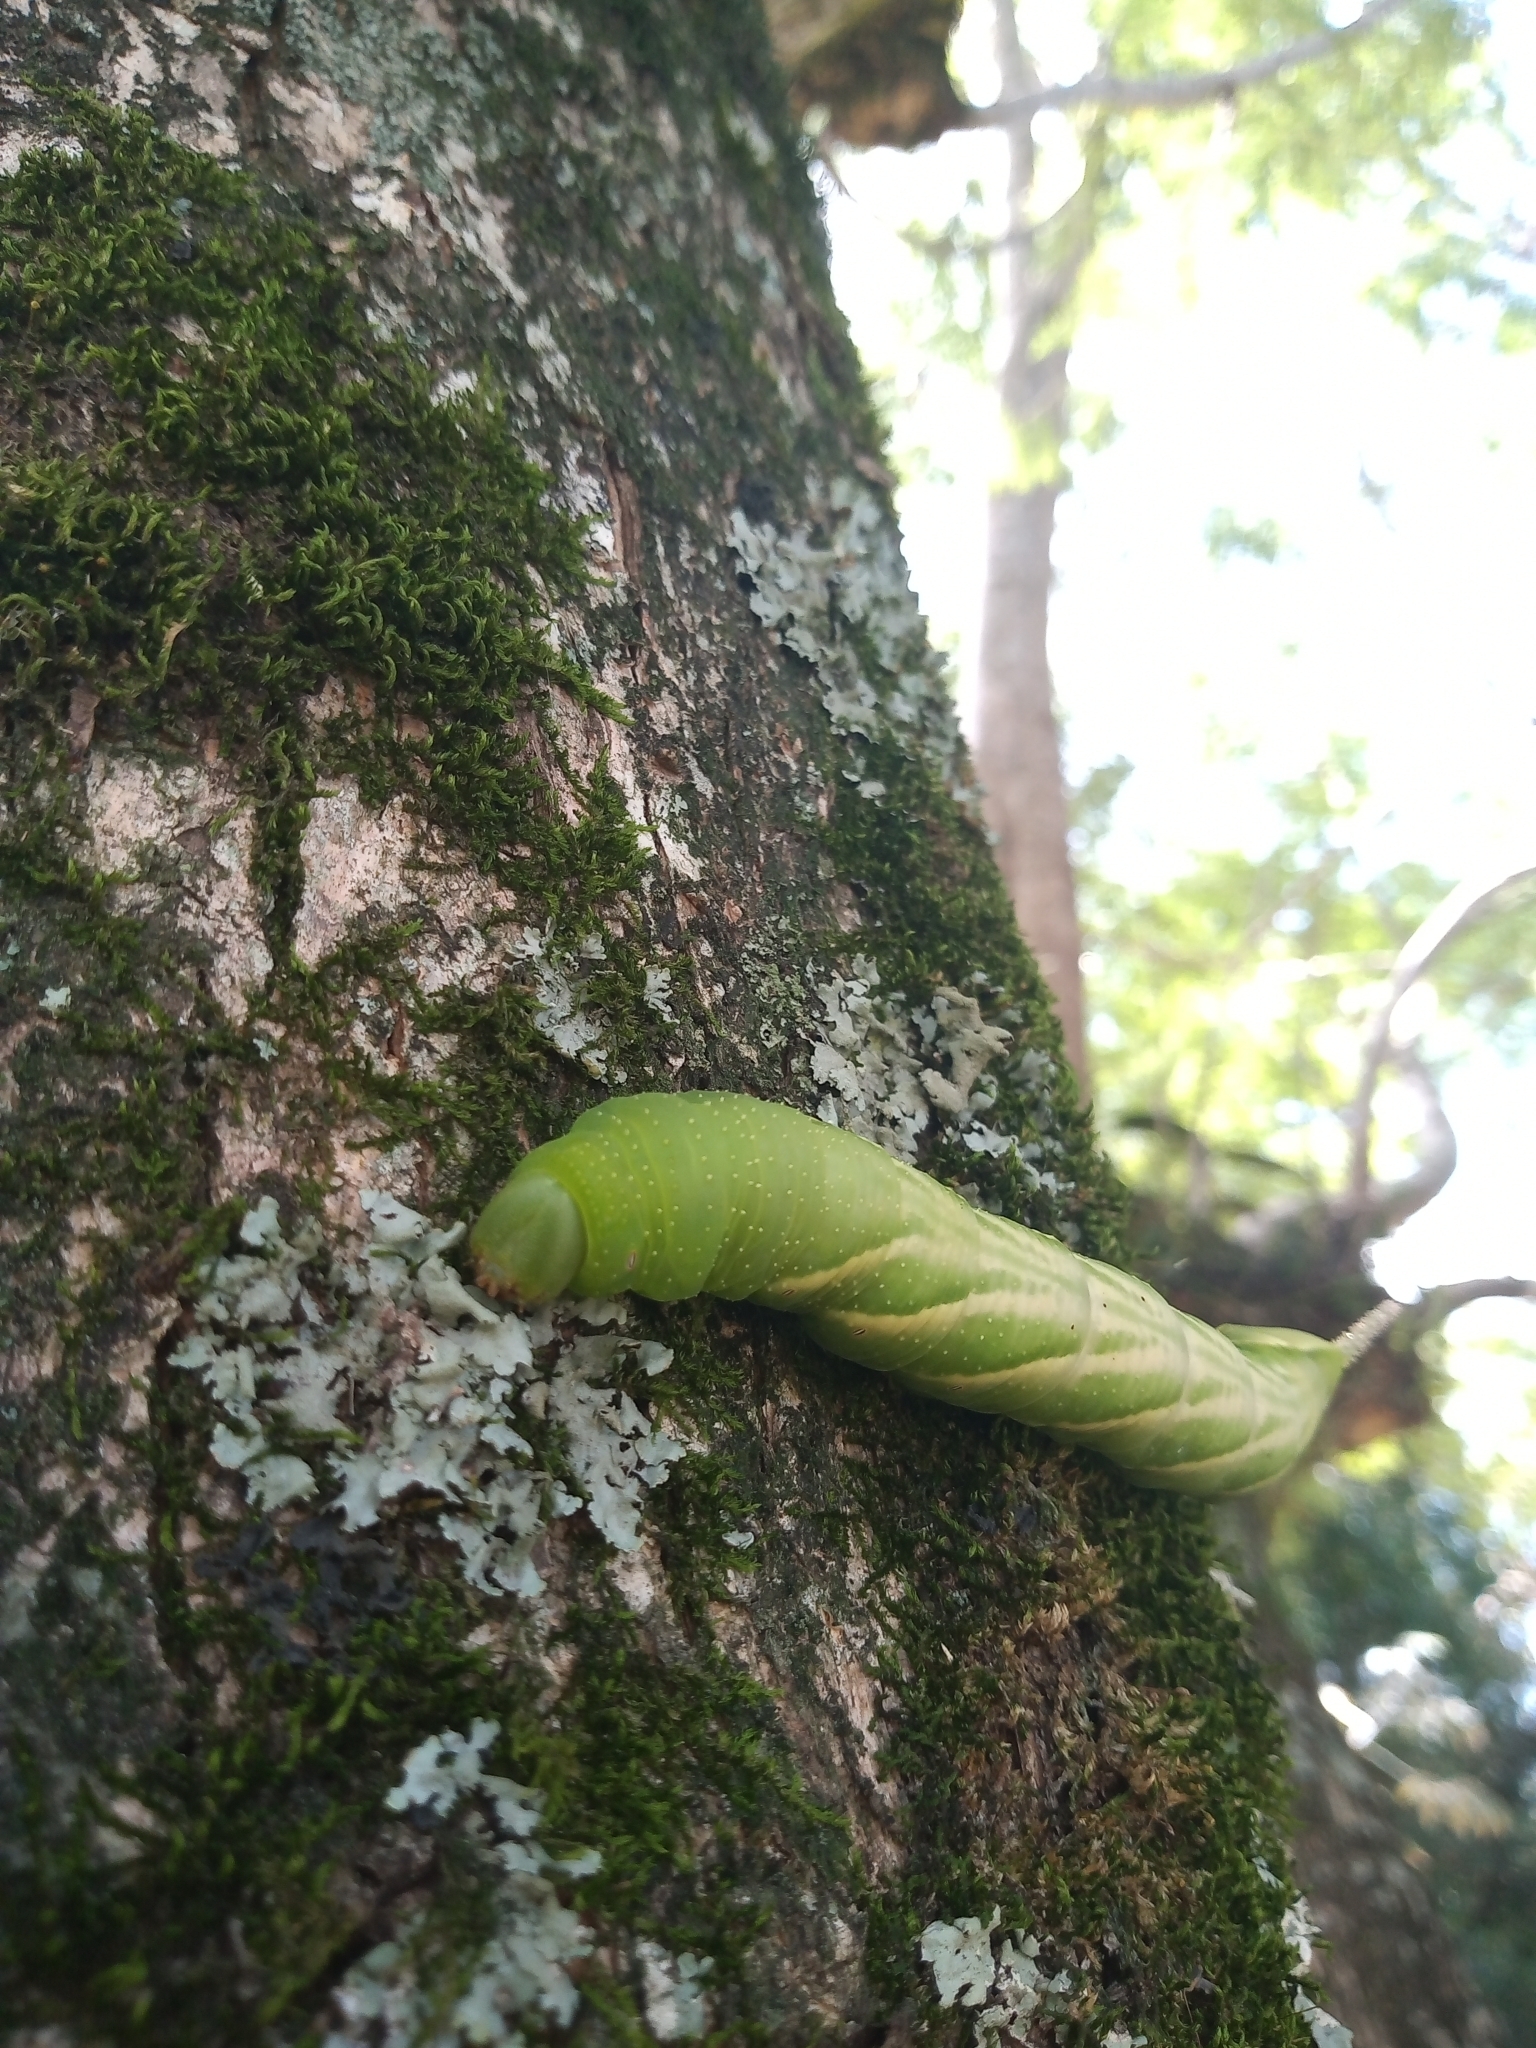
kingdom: Animalia
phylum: Arthropoda
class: Insecta
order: Lepidoptera
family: Sphingidae
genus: Manduca
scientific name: Manduca rustica
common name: Rustic sphinx
